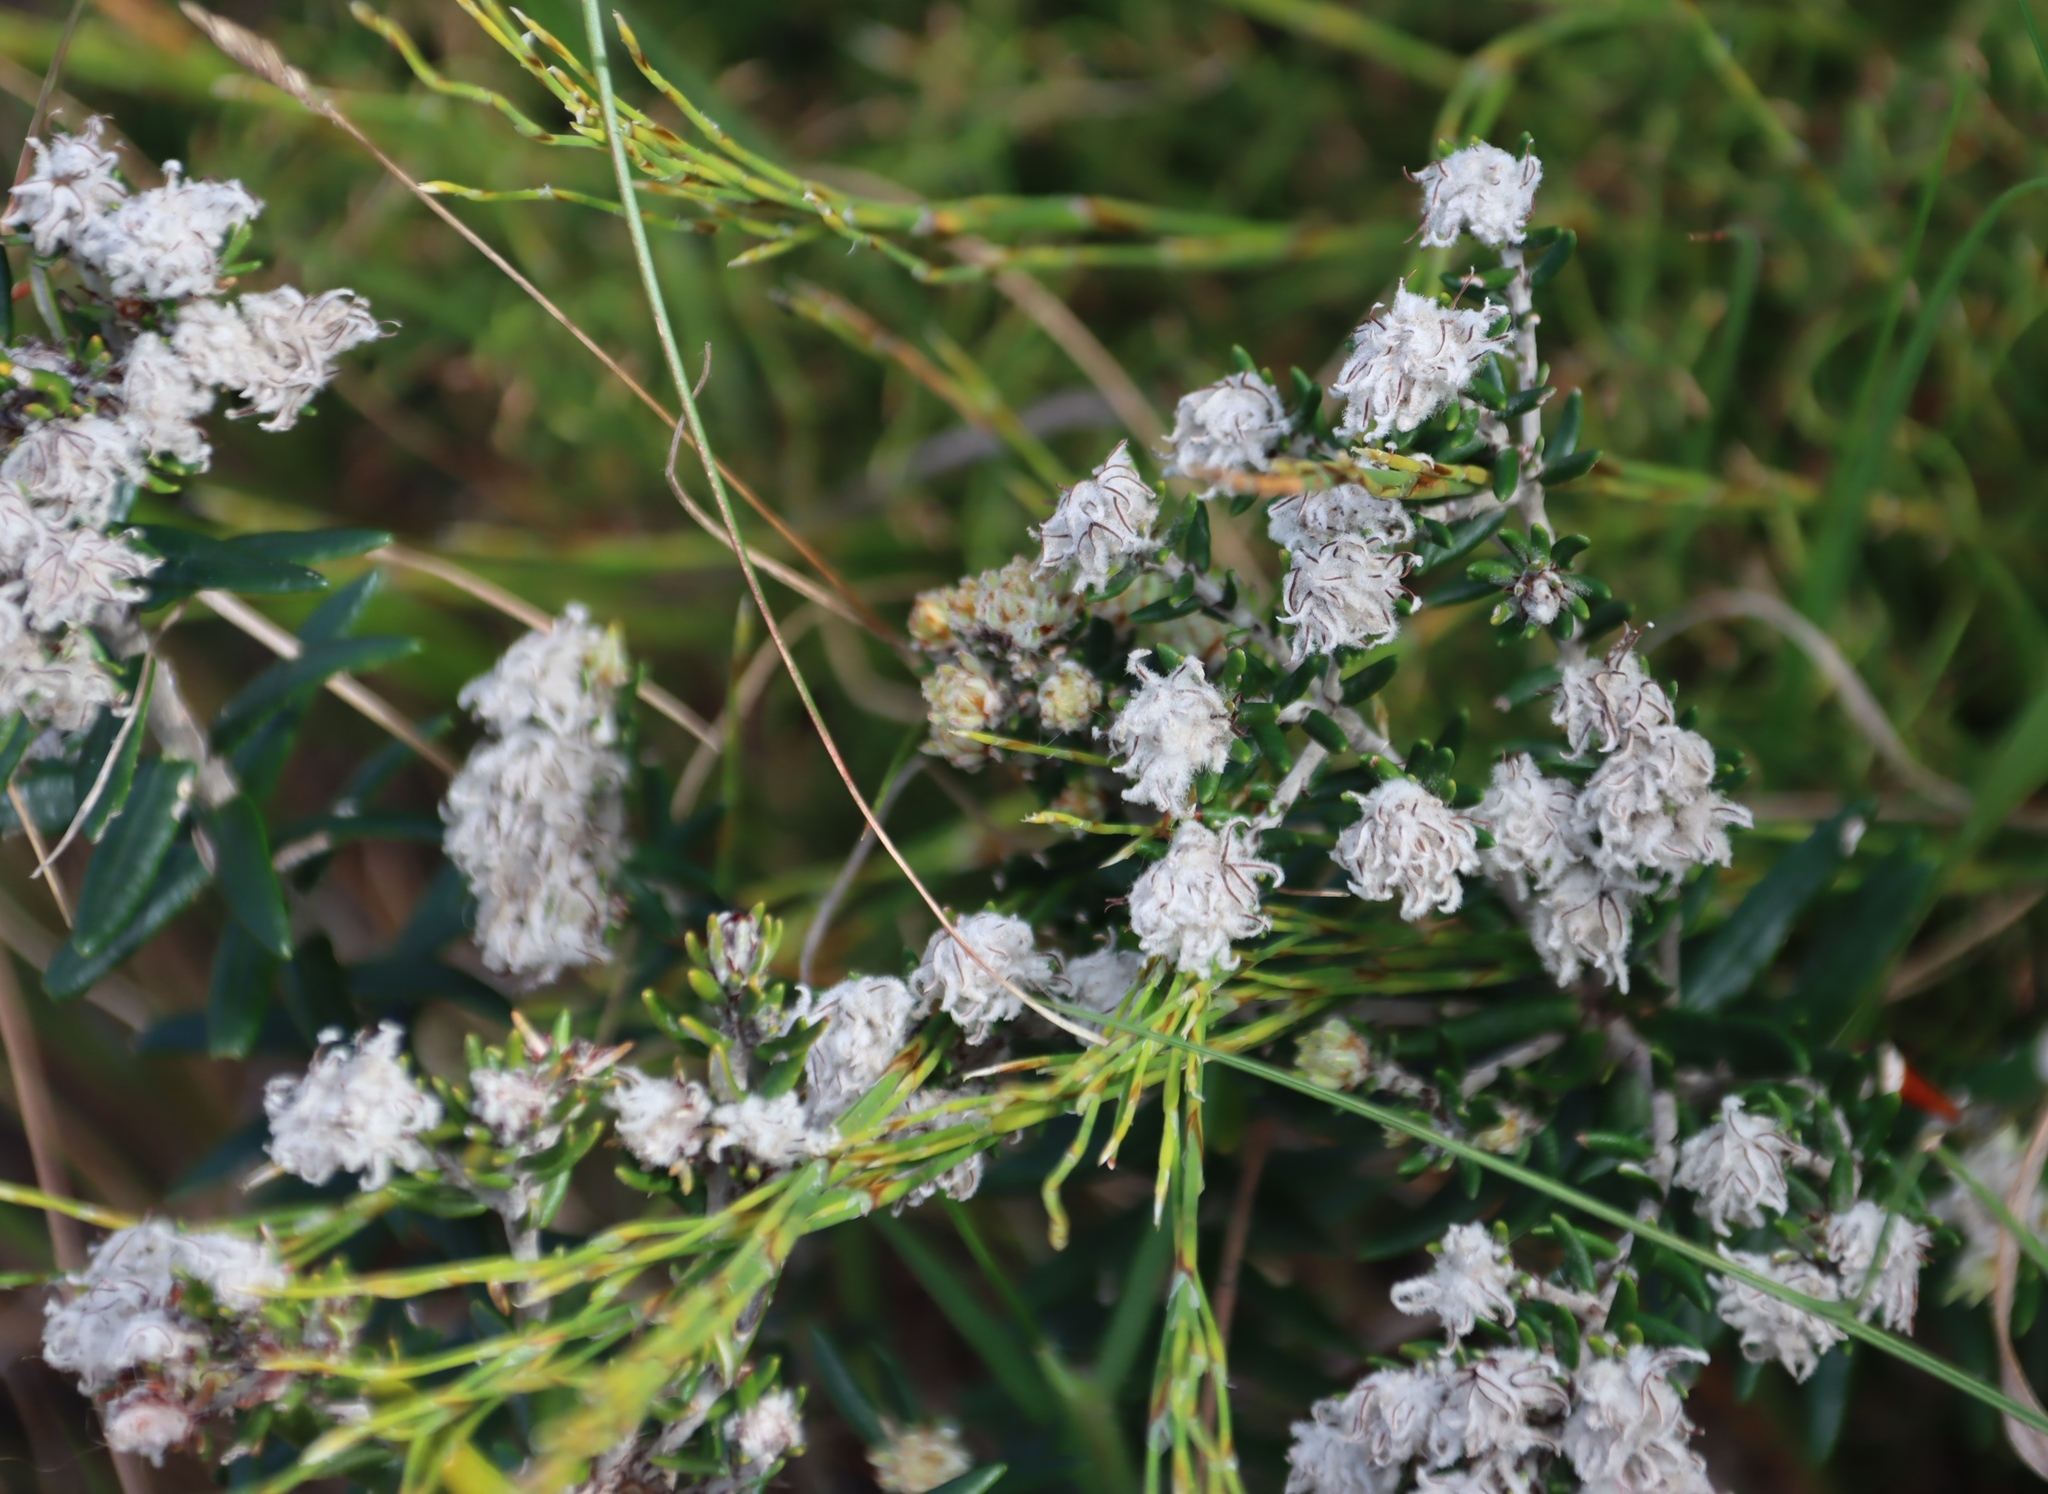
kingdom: Plantae
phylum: Tracheophyta
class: Magnoliopsida
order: Rosales
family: Rhamnaceae
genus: Trichocephalus
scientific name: Trichocephalus stipularis
